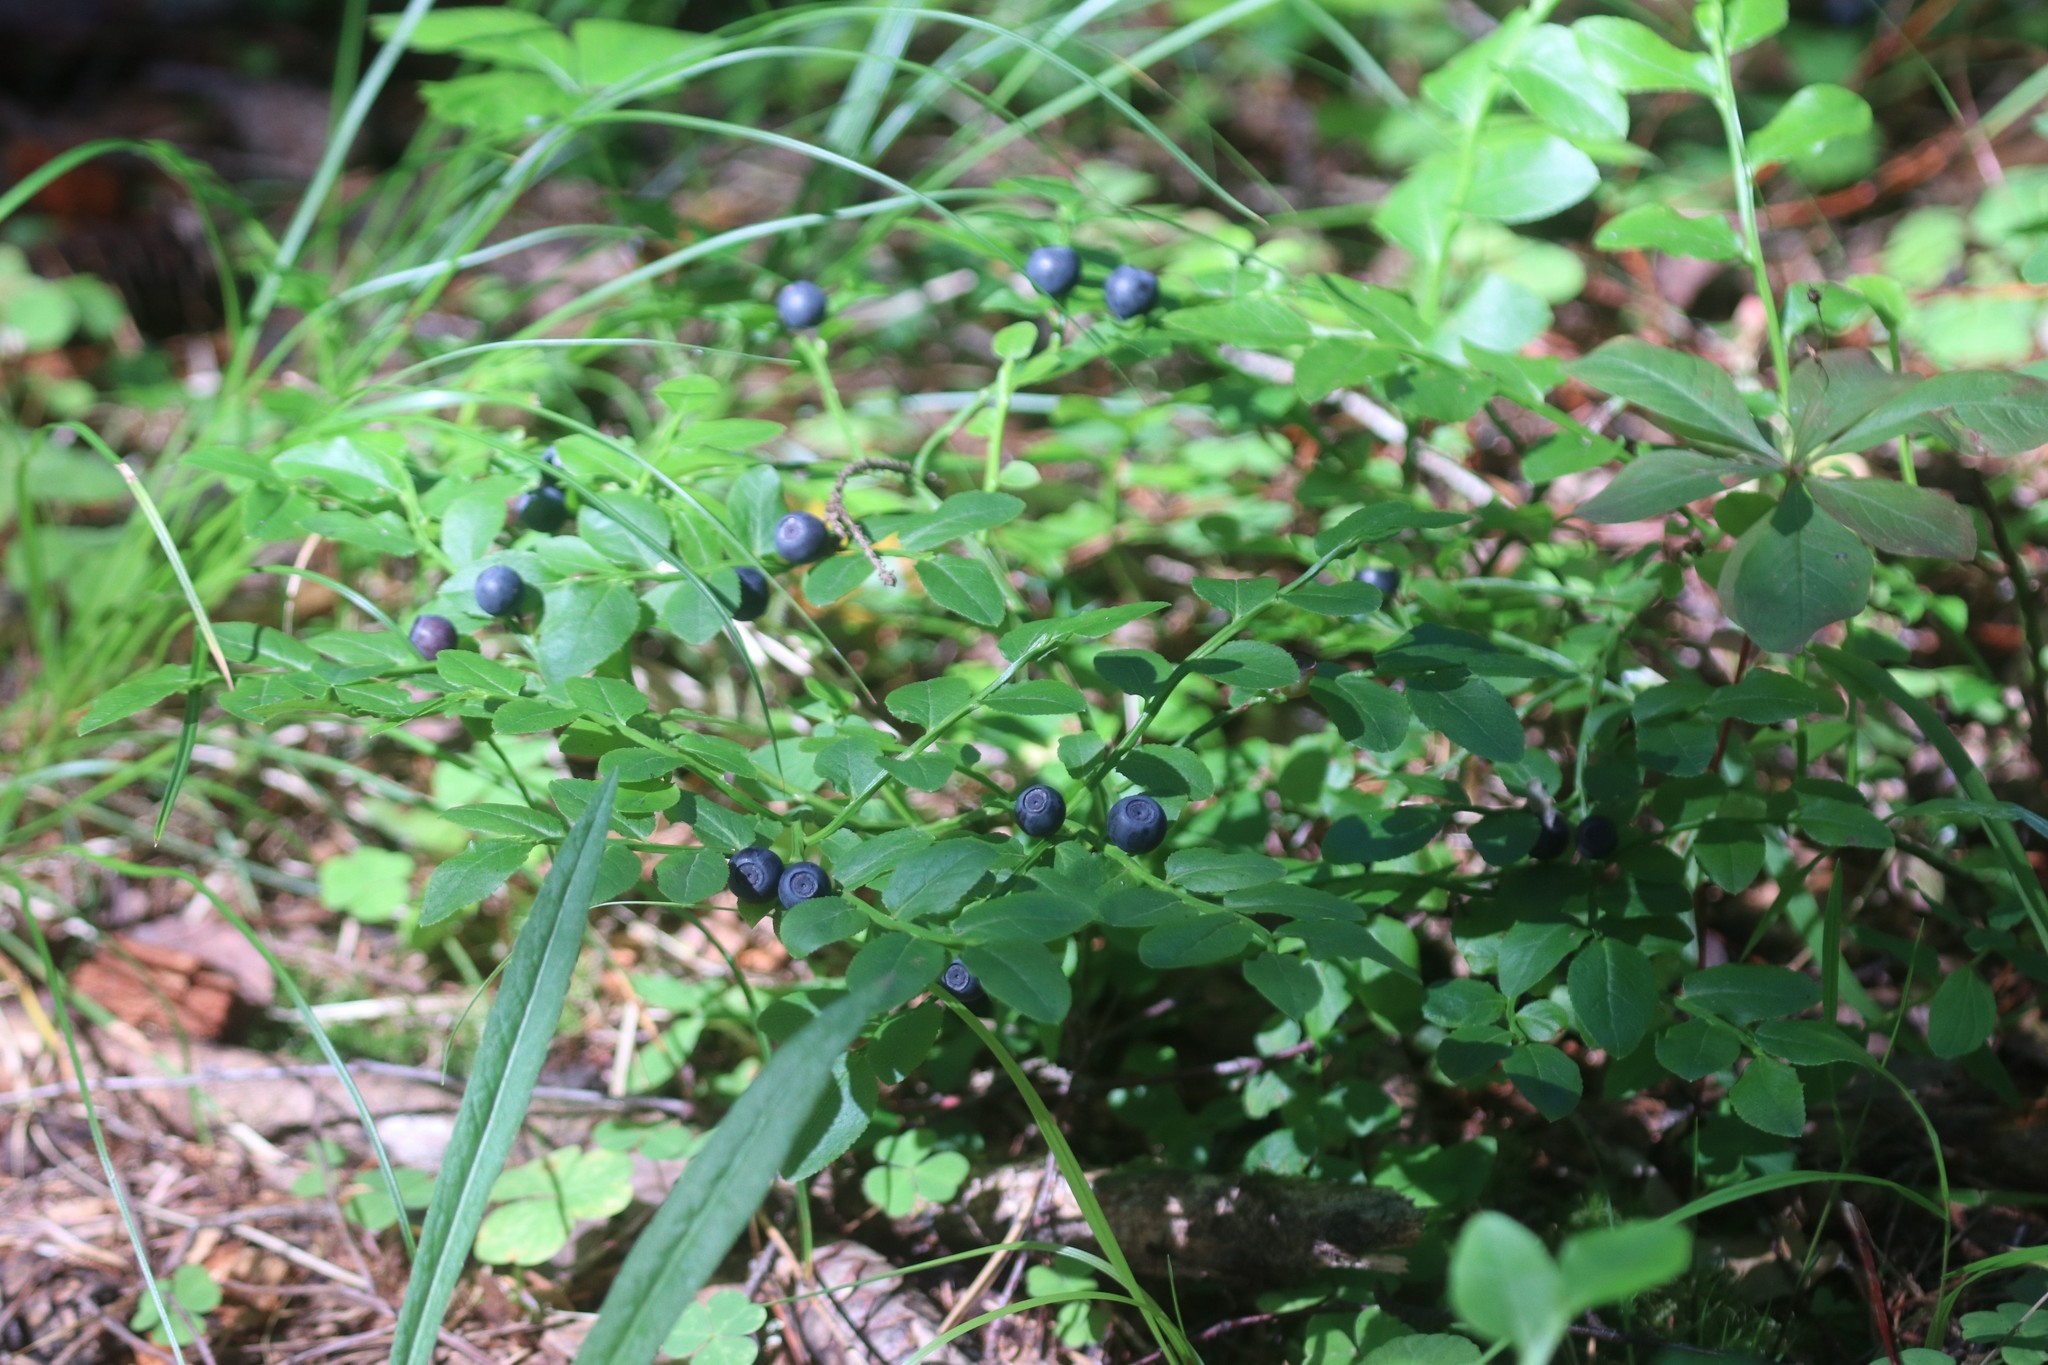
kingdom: Plantae
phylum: Tracheophyta
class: Magnoliopsida
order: Ericales
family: Ericaceae
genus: Vaccinium
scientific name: Vaccinium myrtillus
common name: Bilberry
